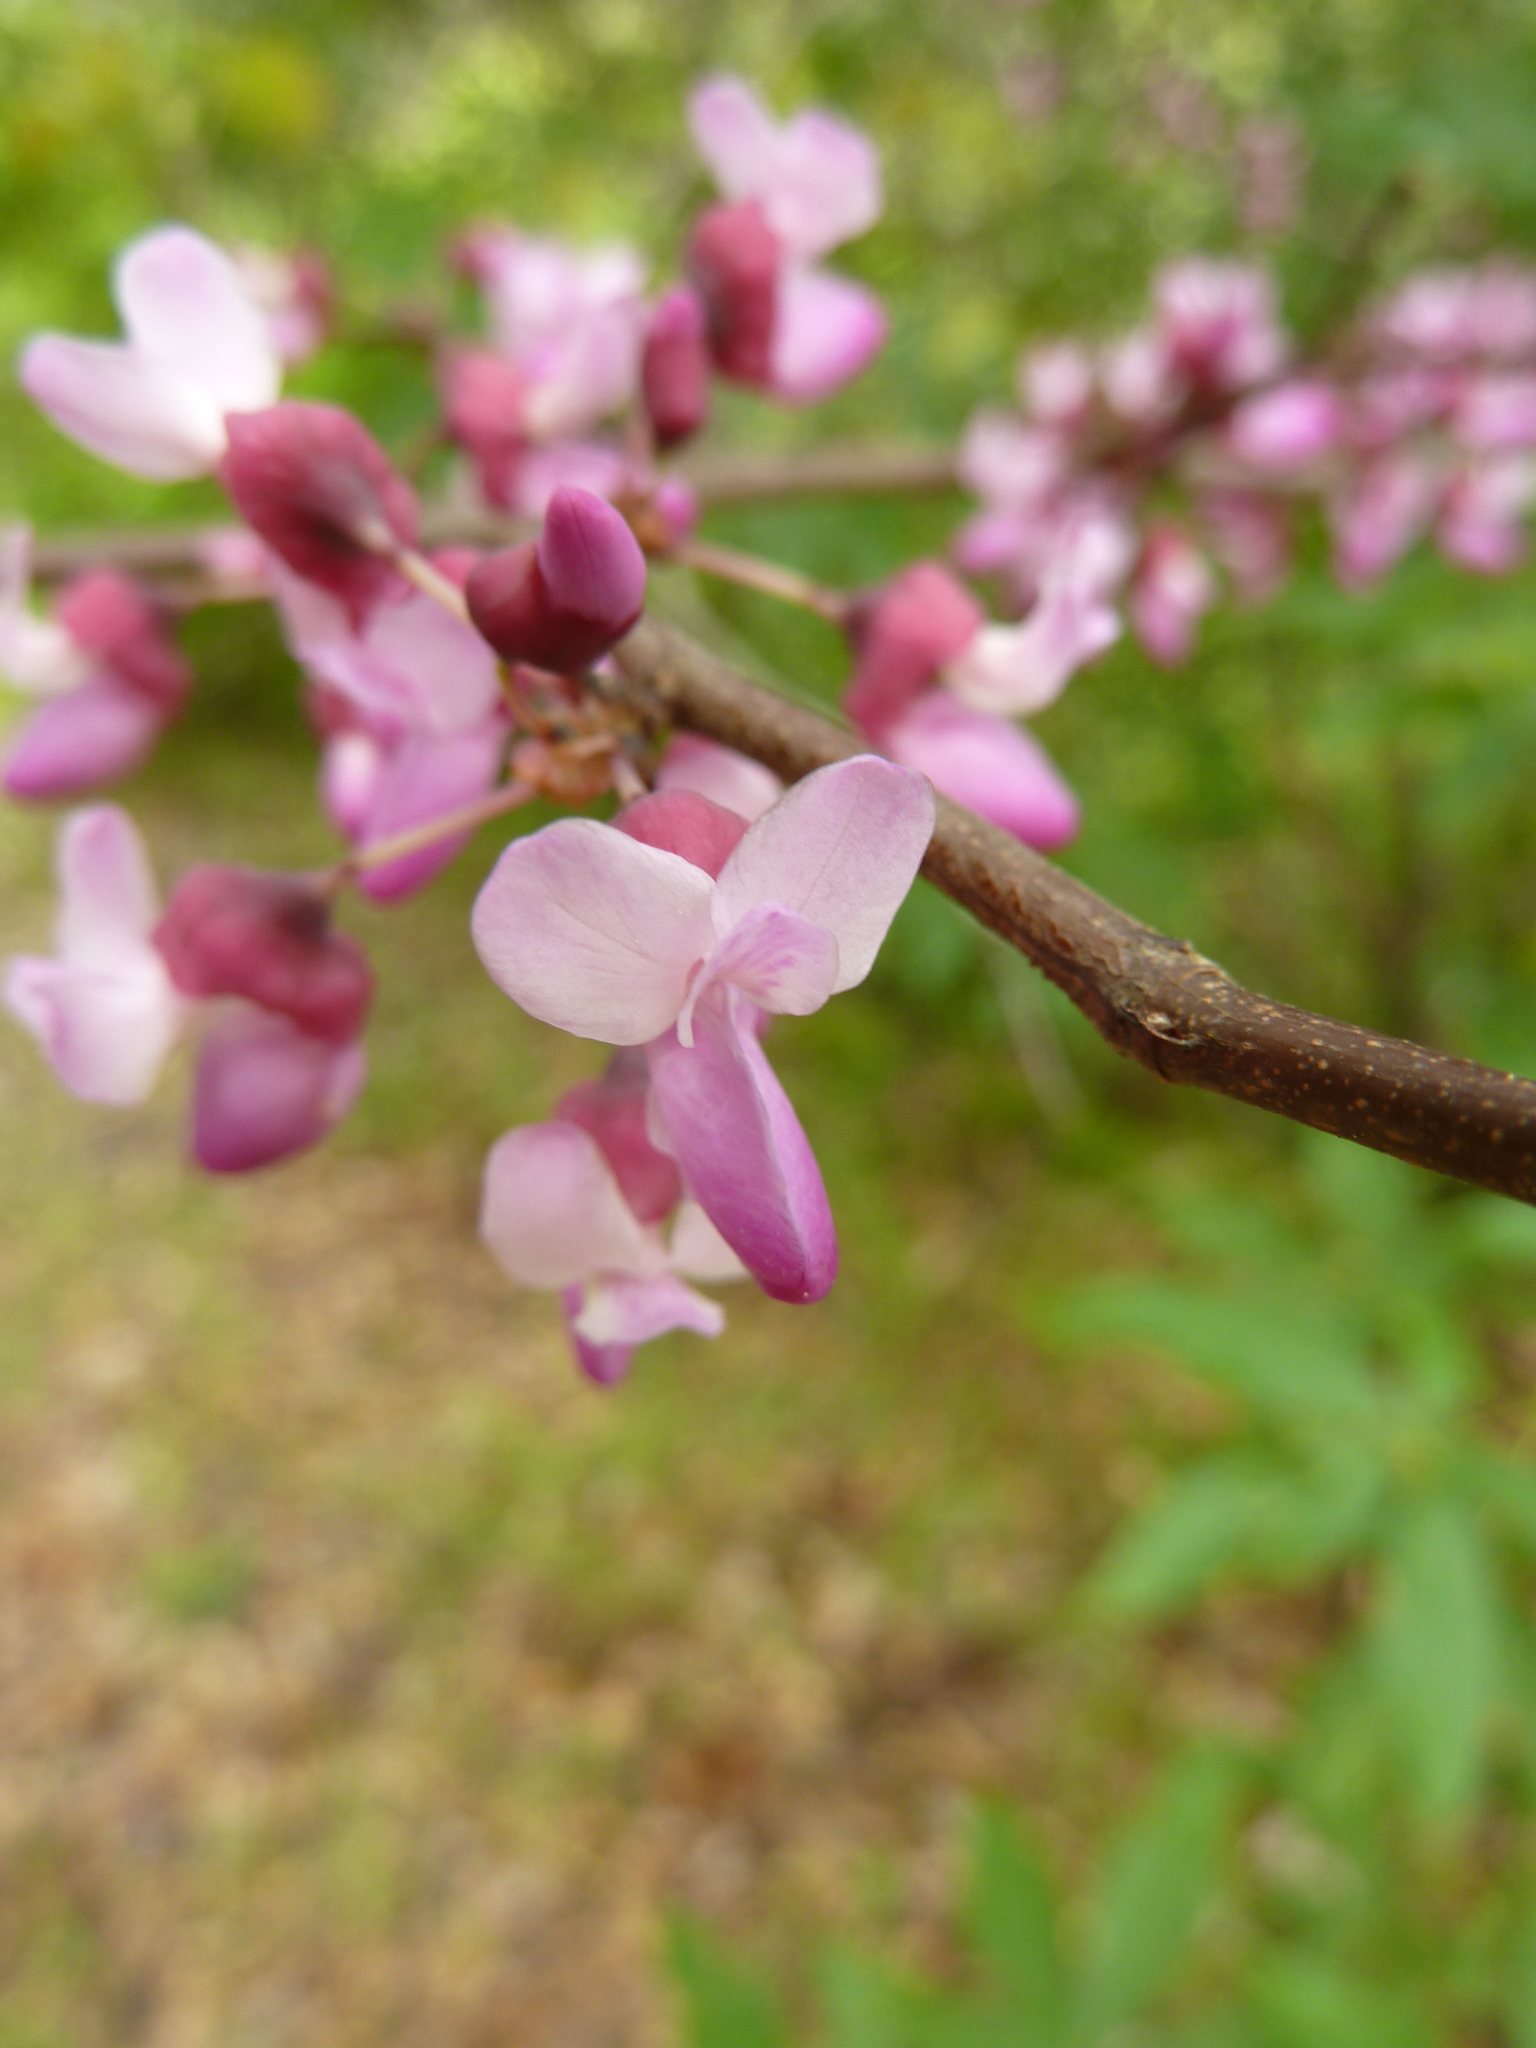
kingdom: Plantae
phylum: Tracheophyta
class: Magnoliopsida
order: Fabales
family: Fabaceae
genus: Cercis
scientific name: Cercis occidentalis
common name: California redbud
